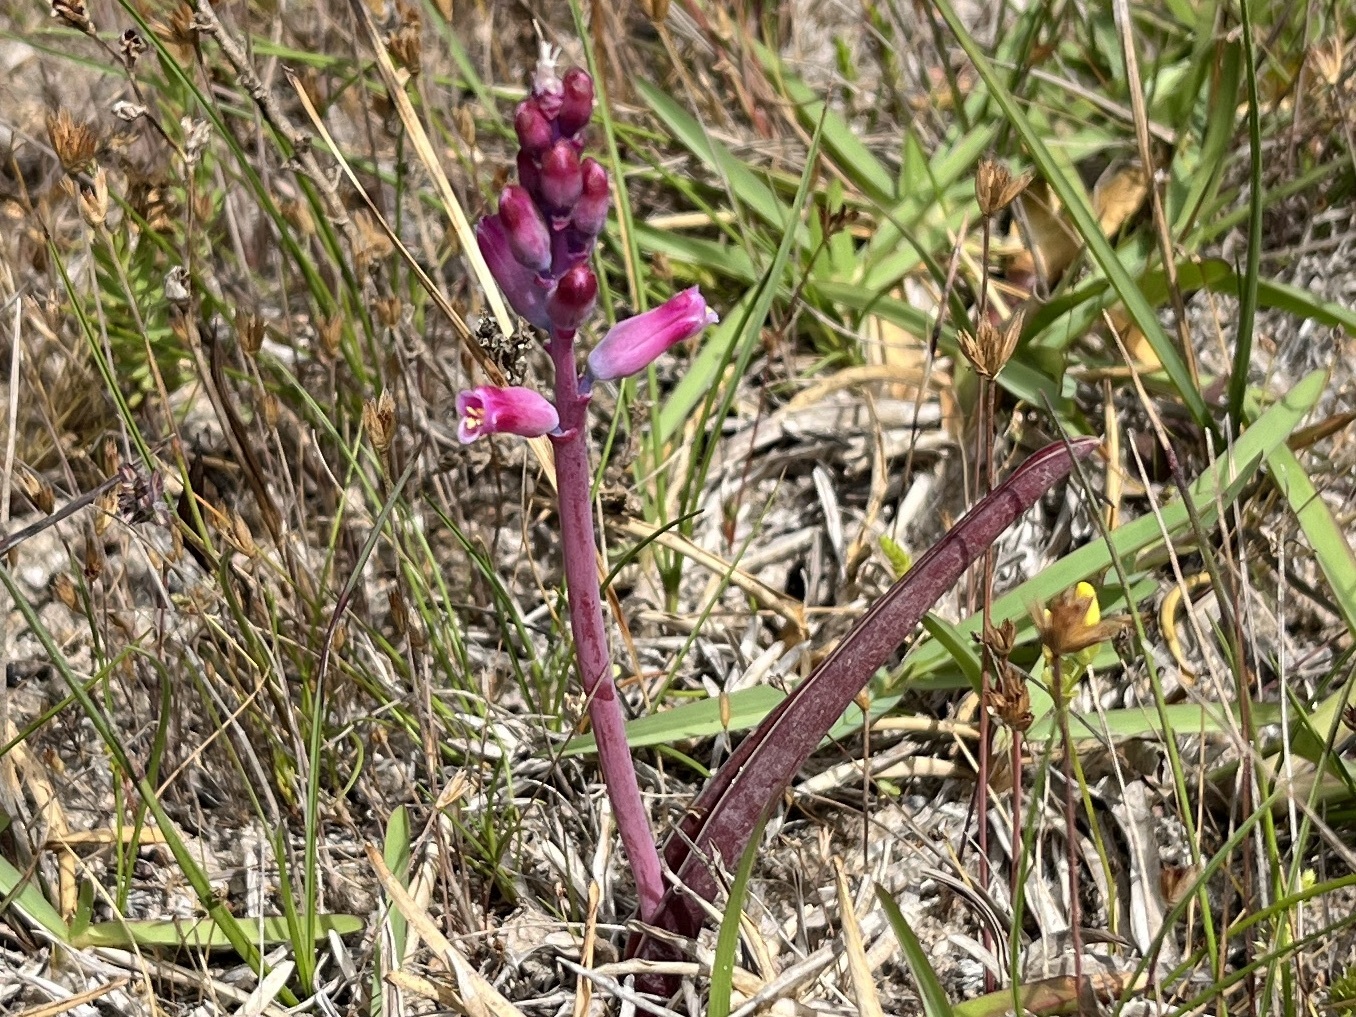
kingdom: Plantae
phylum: Tracheophyta
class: Liliopsida
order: Asparagales
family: Asparagaceae
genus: Lachenalia
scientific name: Lachenalia rosea
